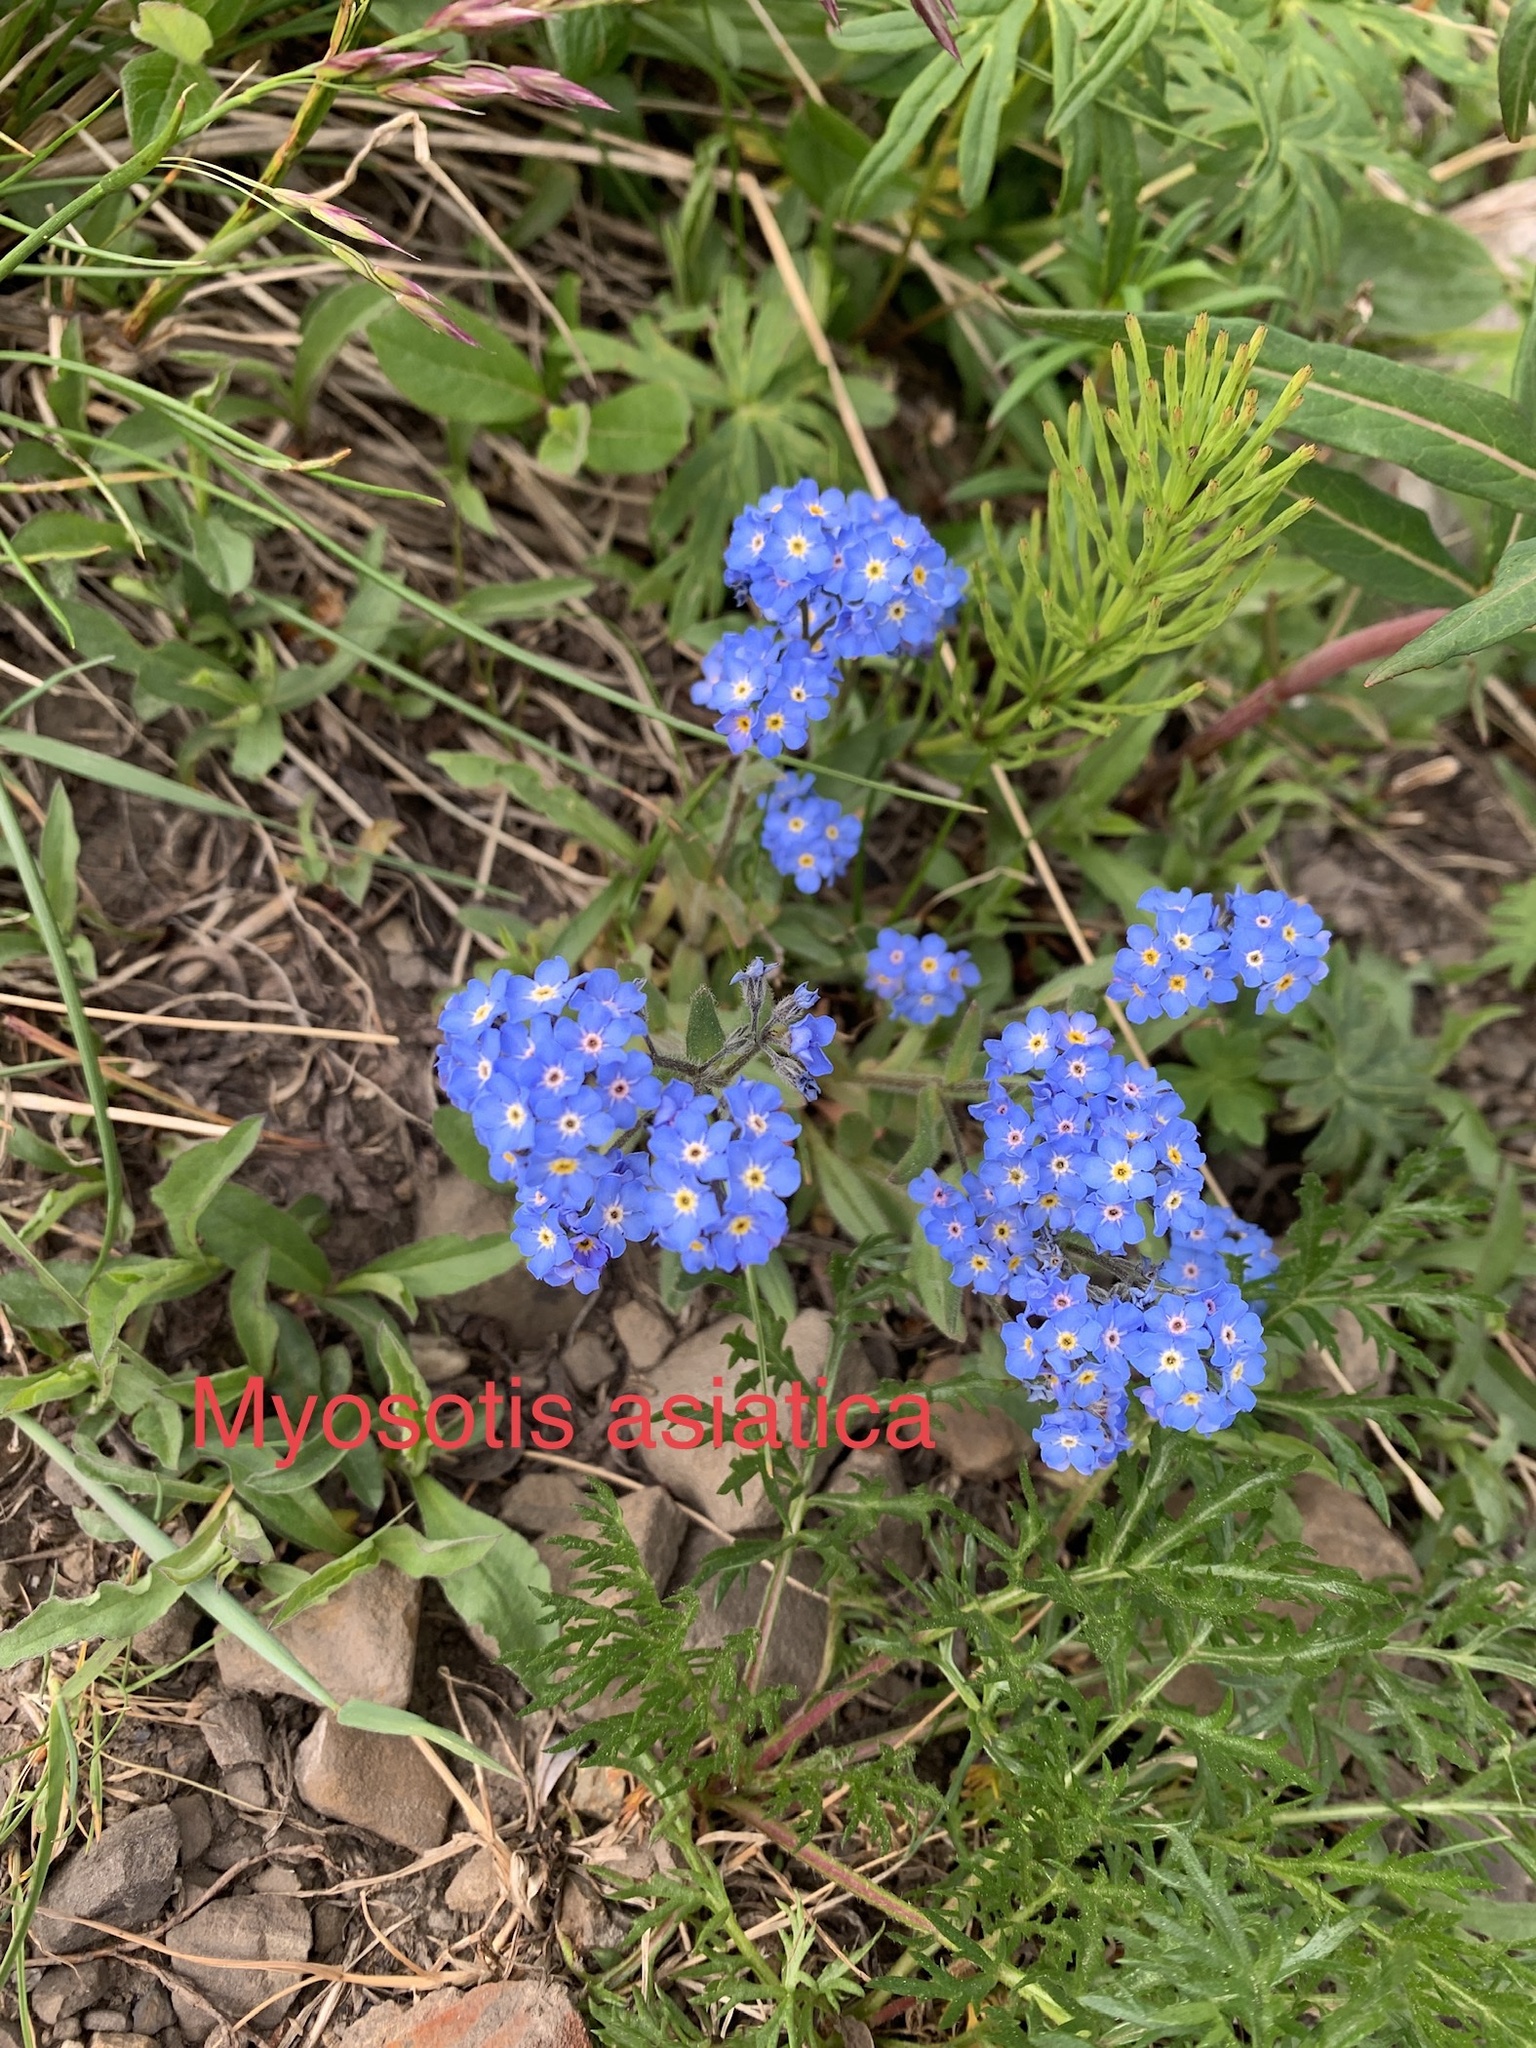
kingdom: Plantae
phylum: Tracheophyta
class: Magnoliopsida
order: Boraginales
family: Boraginaceae
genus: Myosotis
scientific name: Myosotis asiatica
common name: Asian forget-me-not
